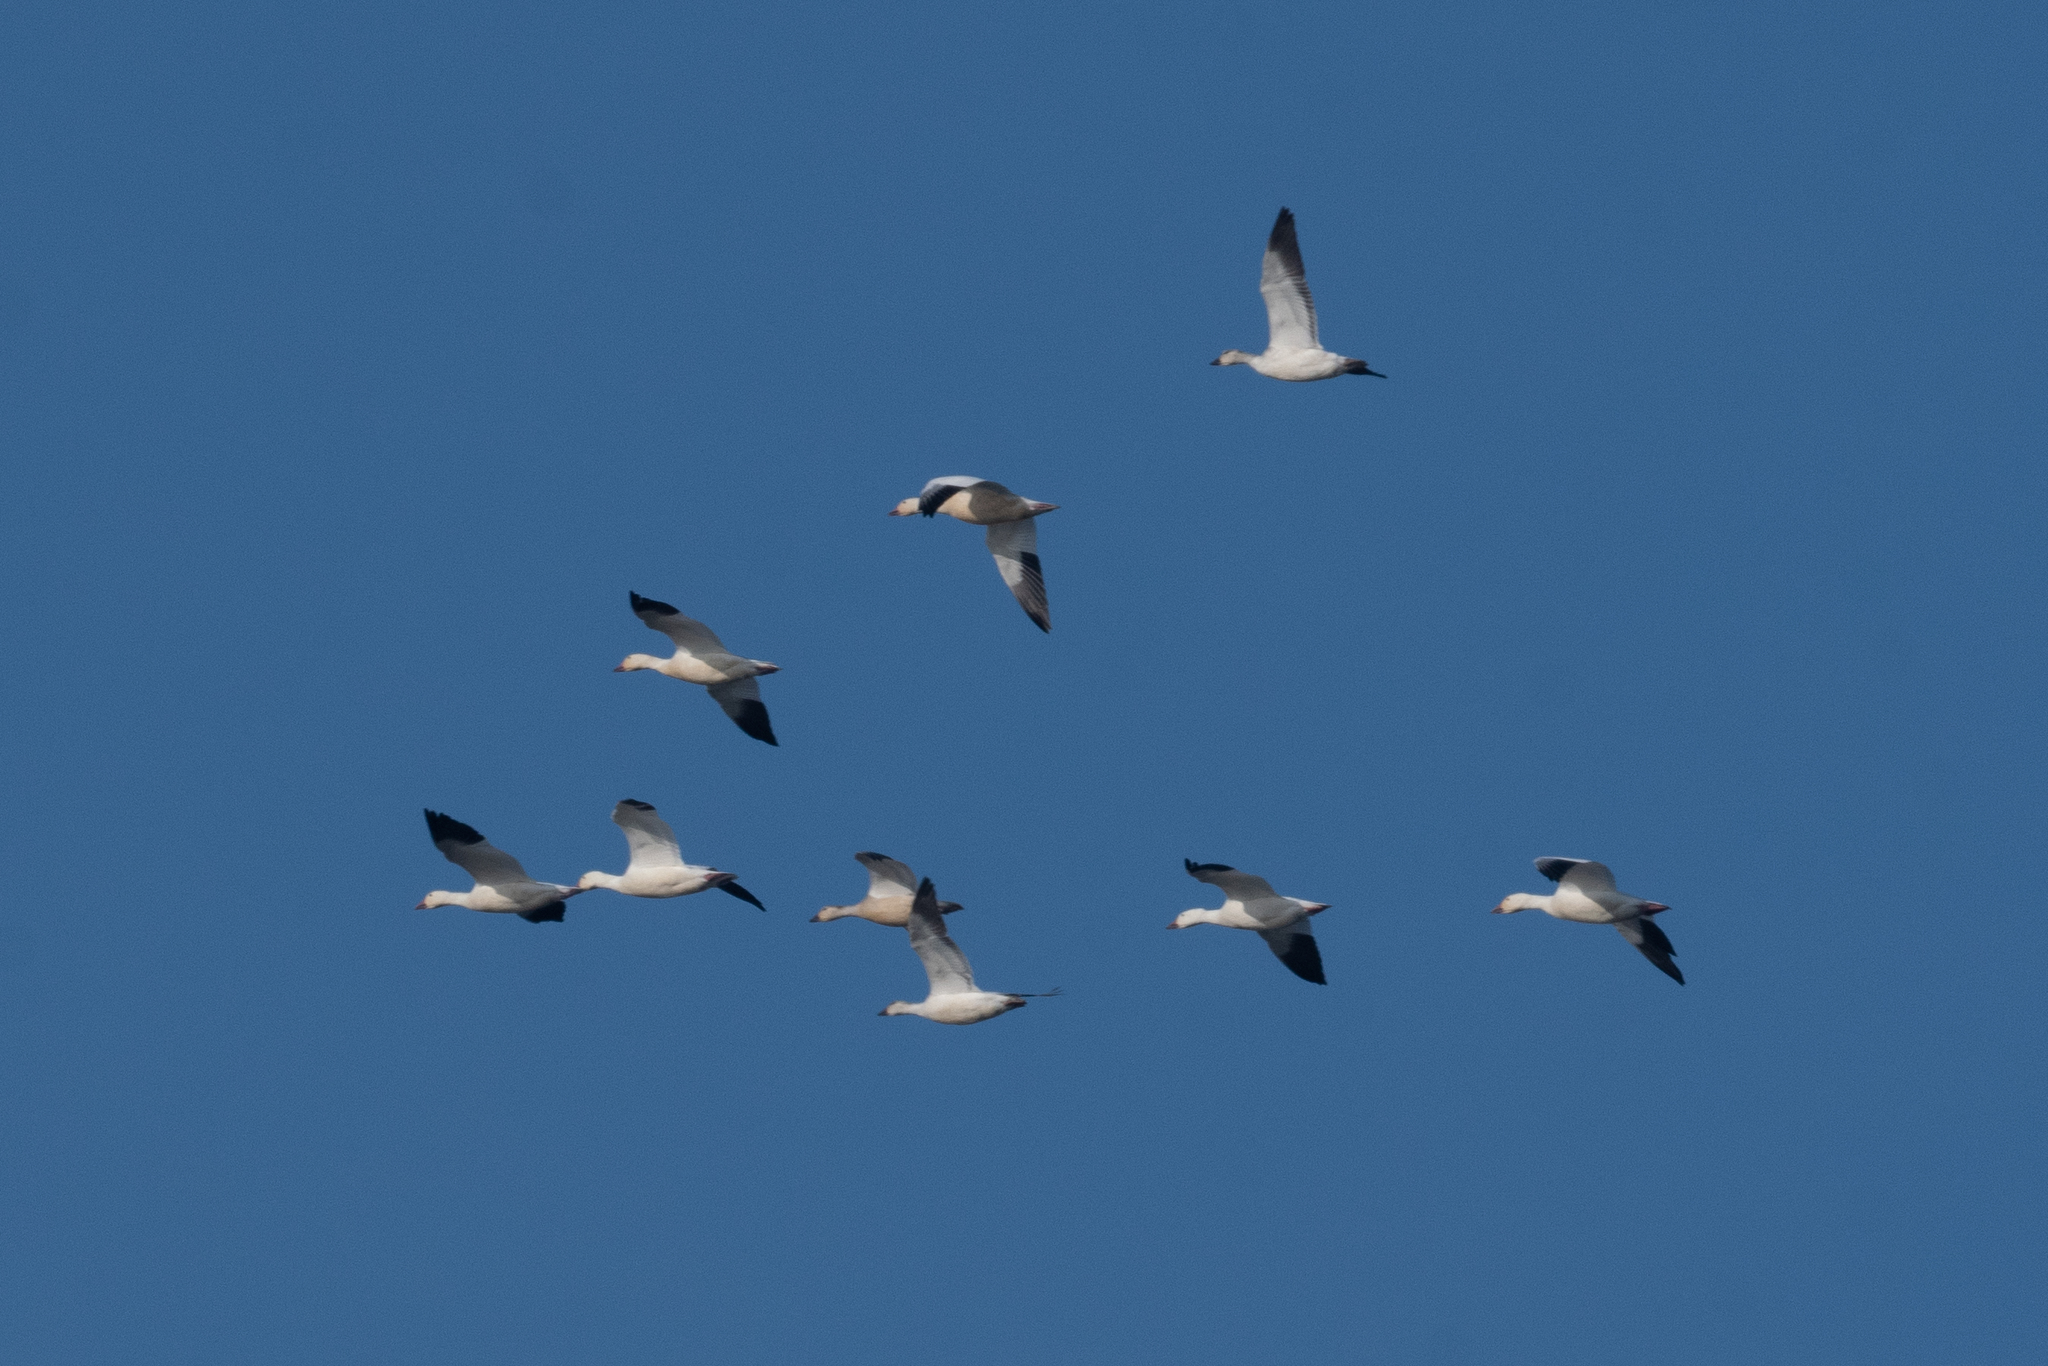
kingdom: Animalia
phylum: Chordata
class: Aves
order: Anseriformes
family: Anatidae
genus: Anser
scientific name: Anser caerulescens
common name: Snow goose
